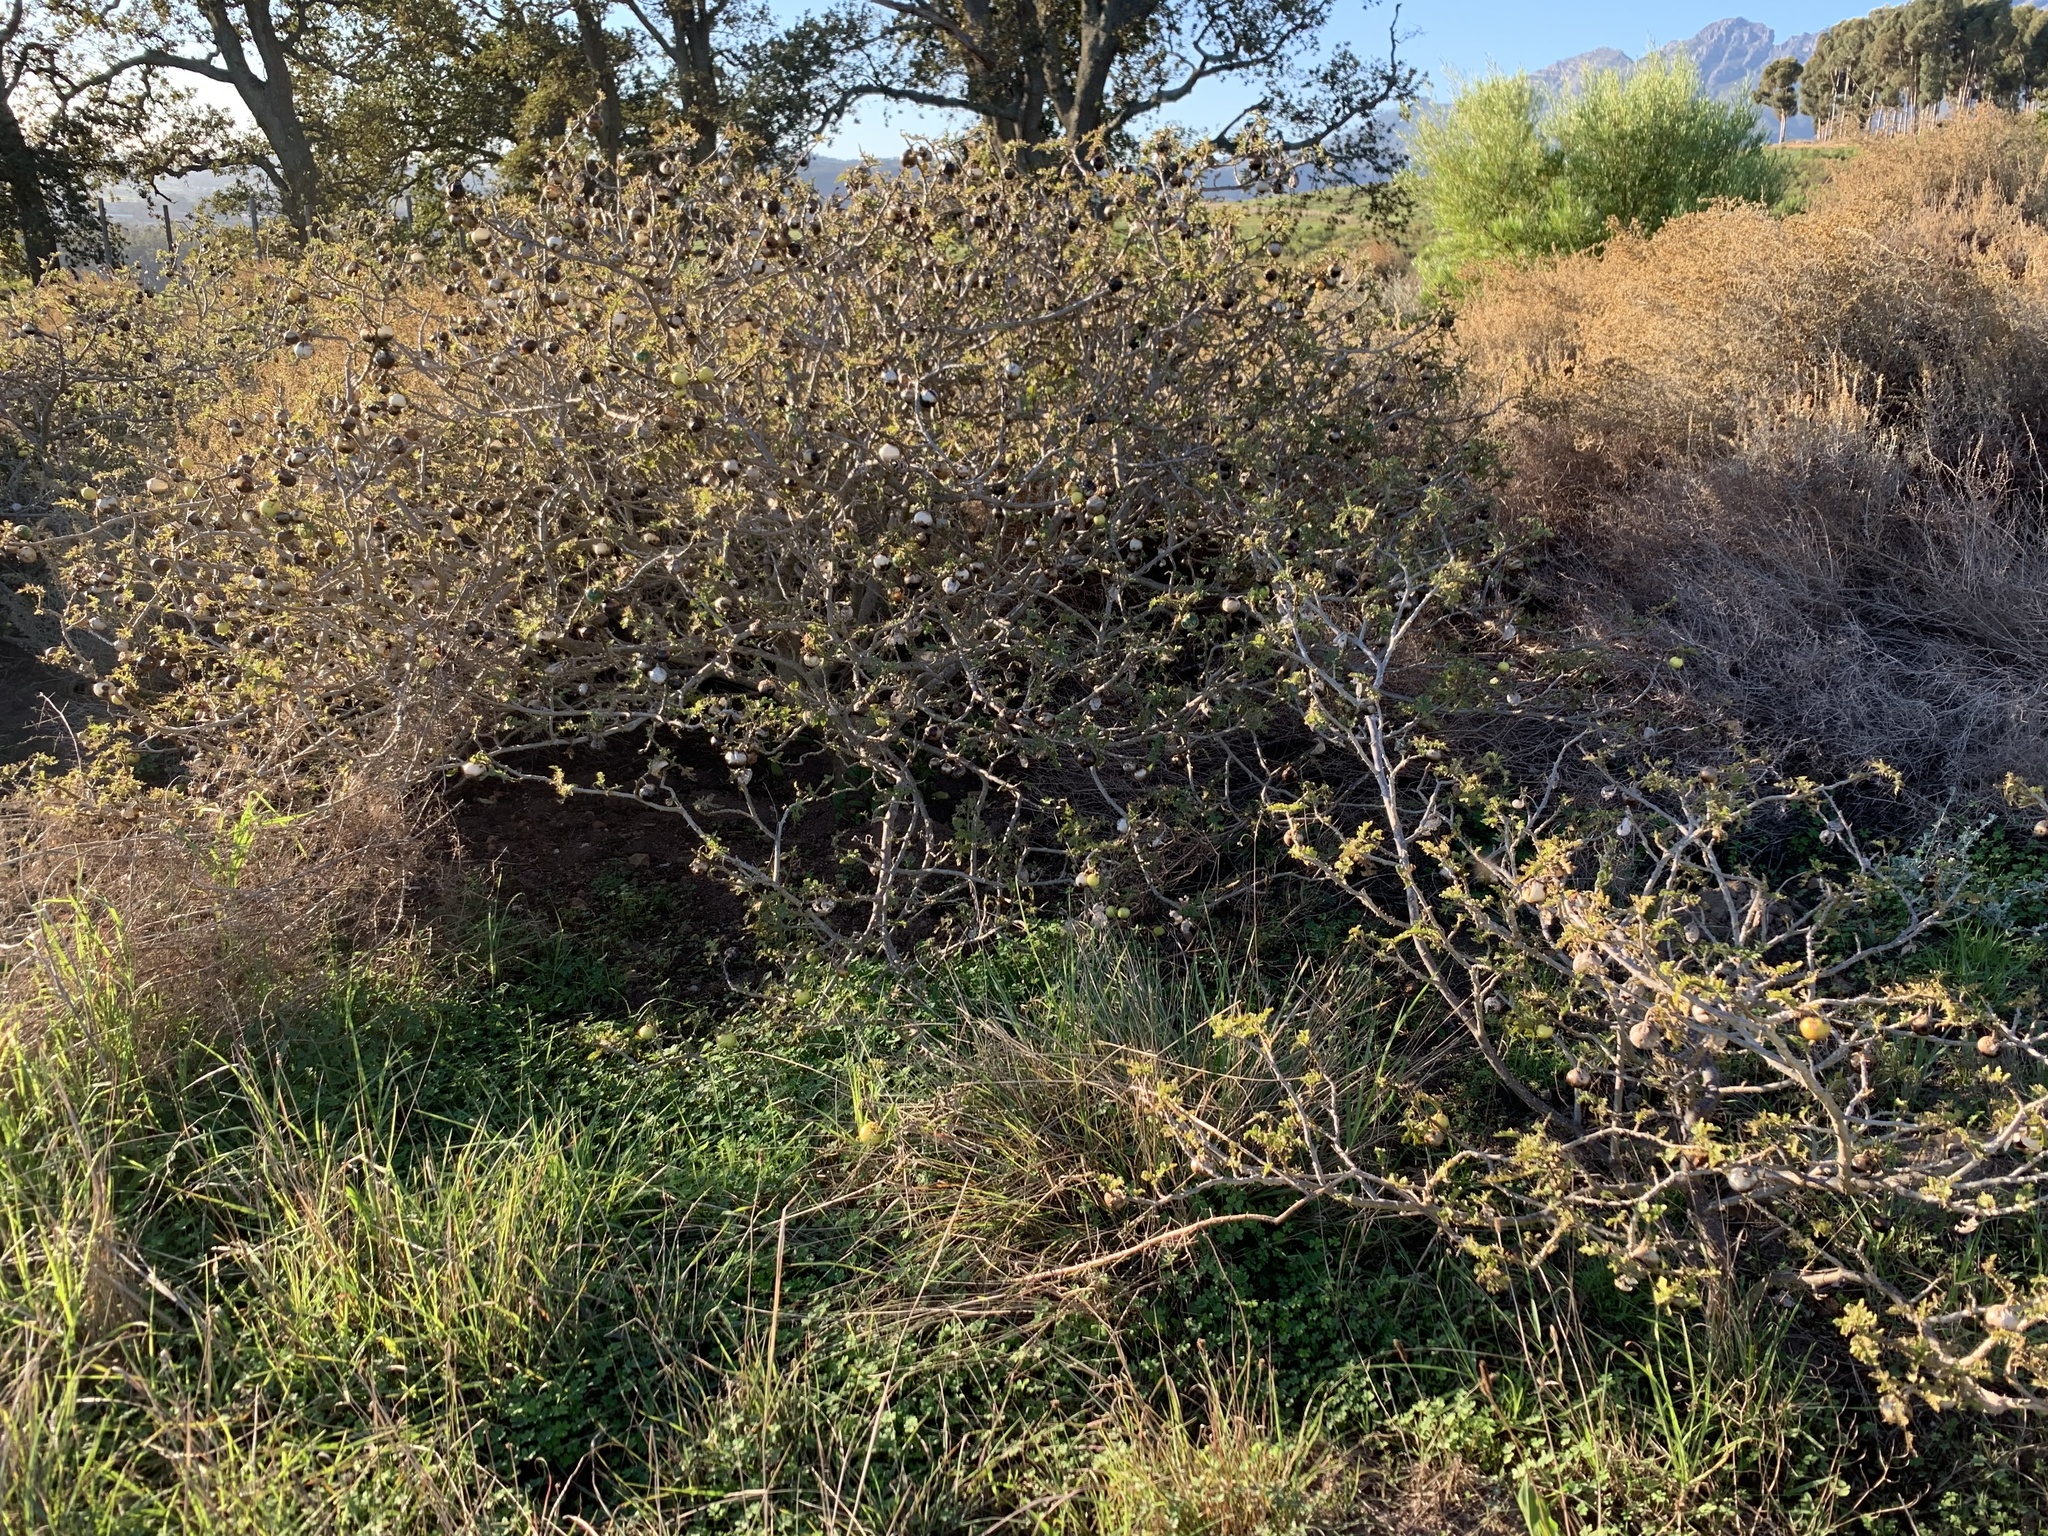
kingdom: Plantae
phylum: Tracheophyta
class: Magnoliopsida
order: Solanales
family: Solanaceae
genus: Solanum
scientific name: Solanum linnaeanum
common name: Nightshade
